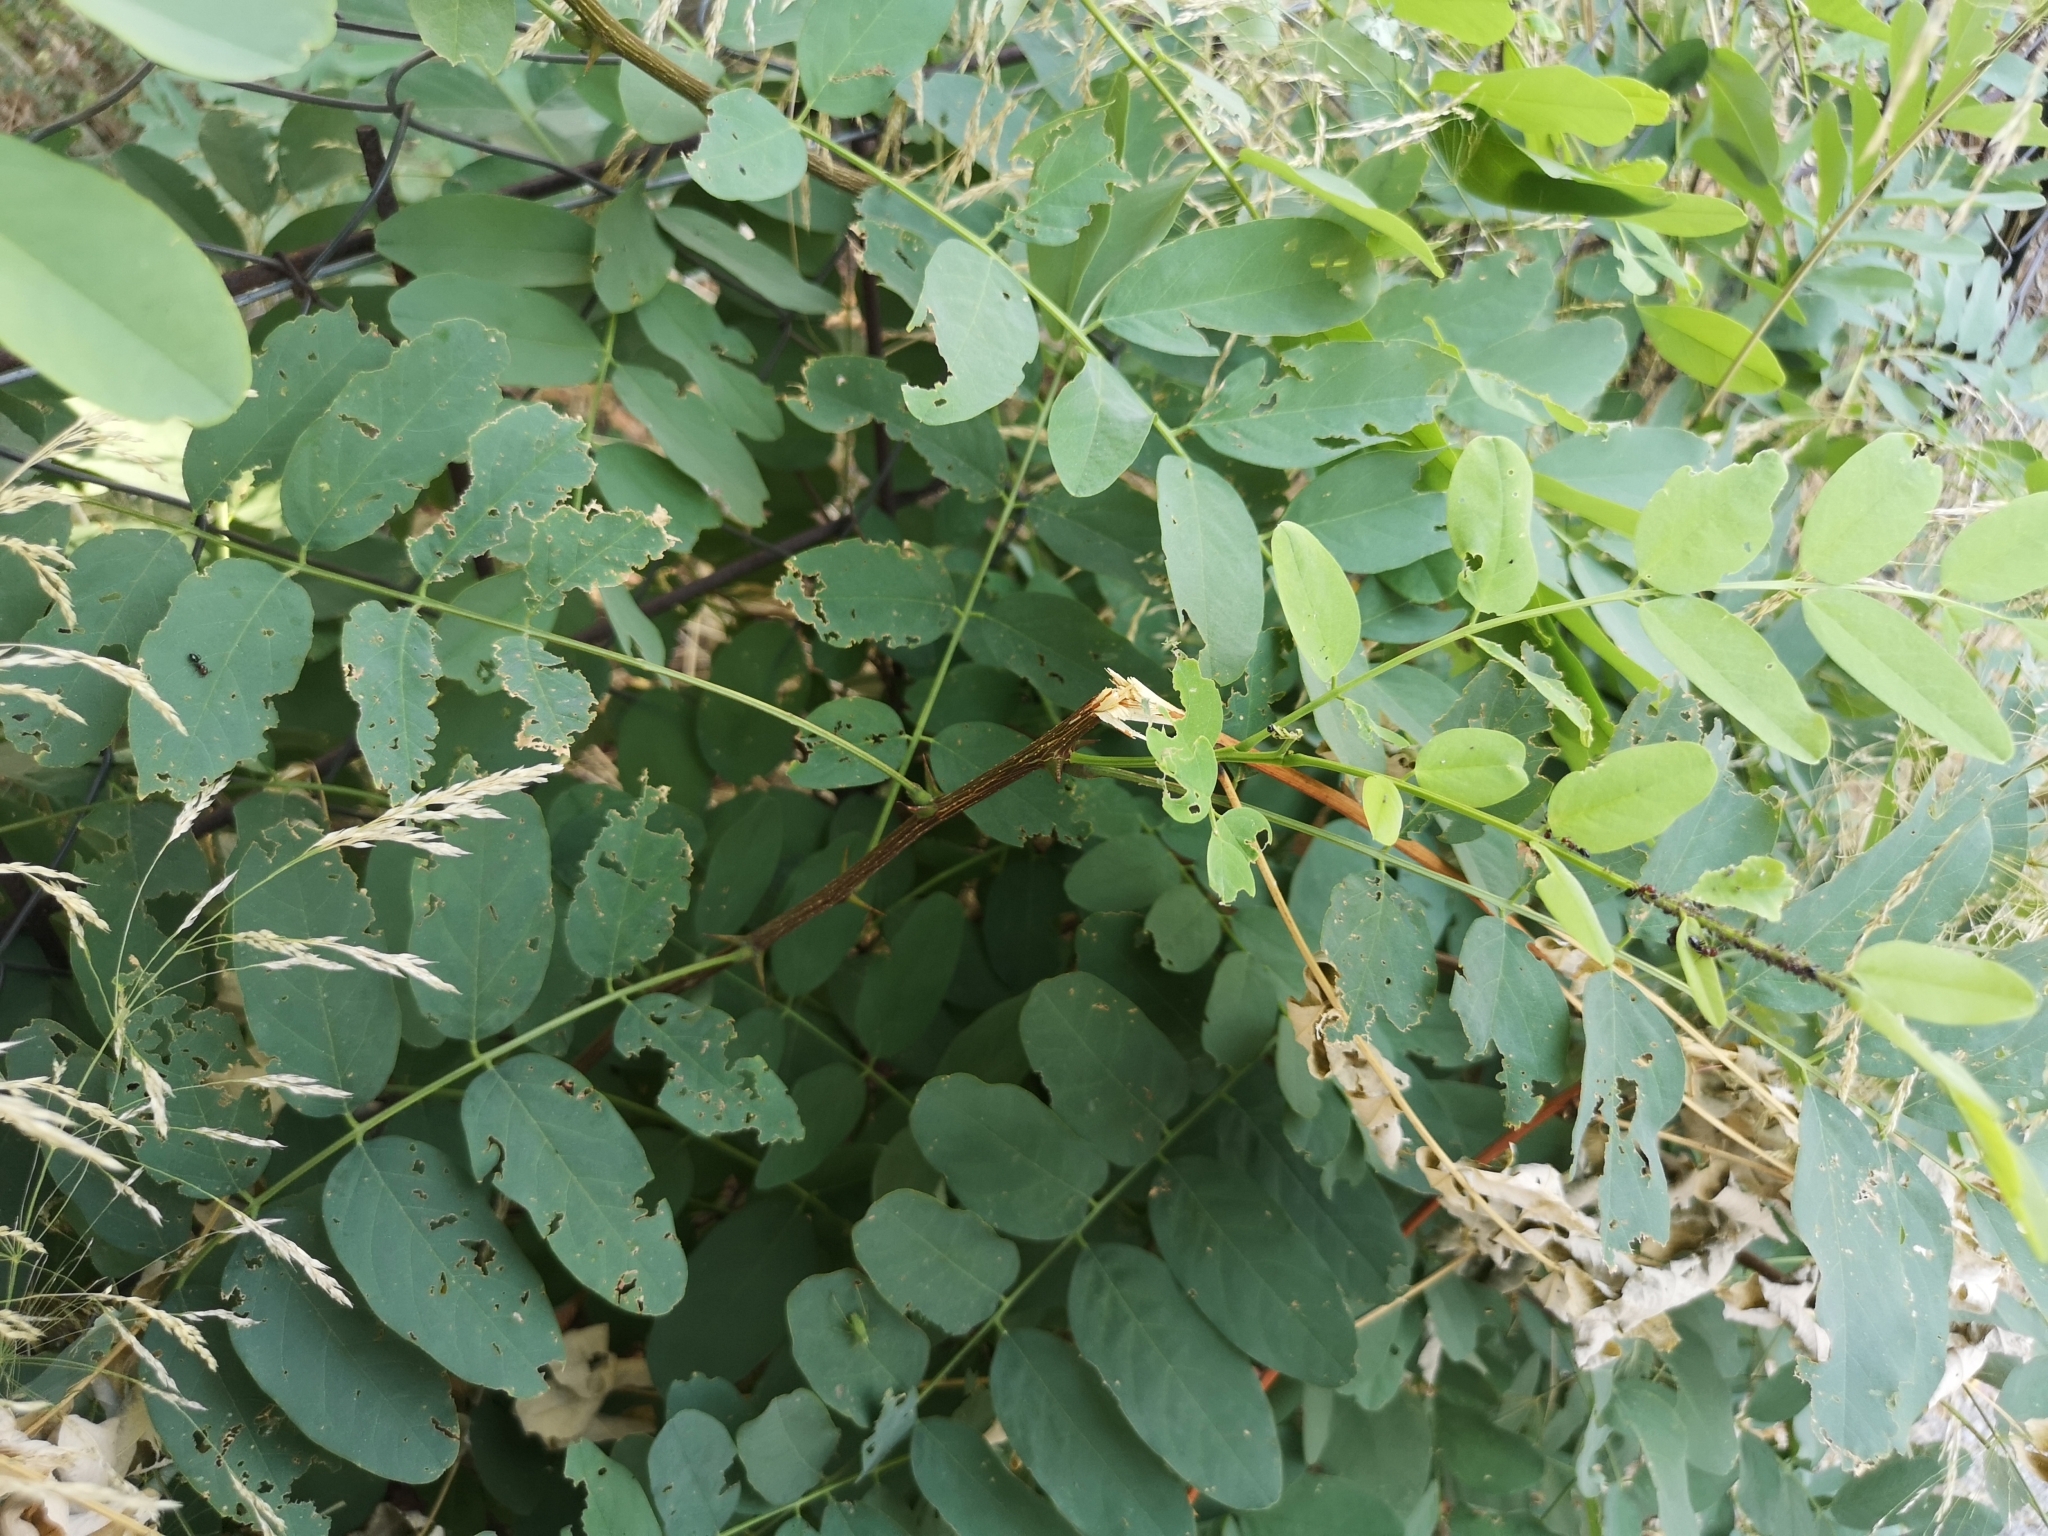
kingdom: Plantae
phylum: Tracheophyta
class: Magnoliopsida
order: Fabales
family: Fabaceae
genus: Robinia
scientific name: Robinia pseudoacacia
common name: Black locust
